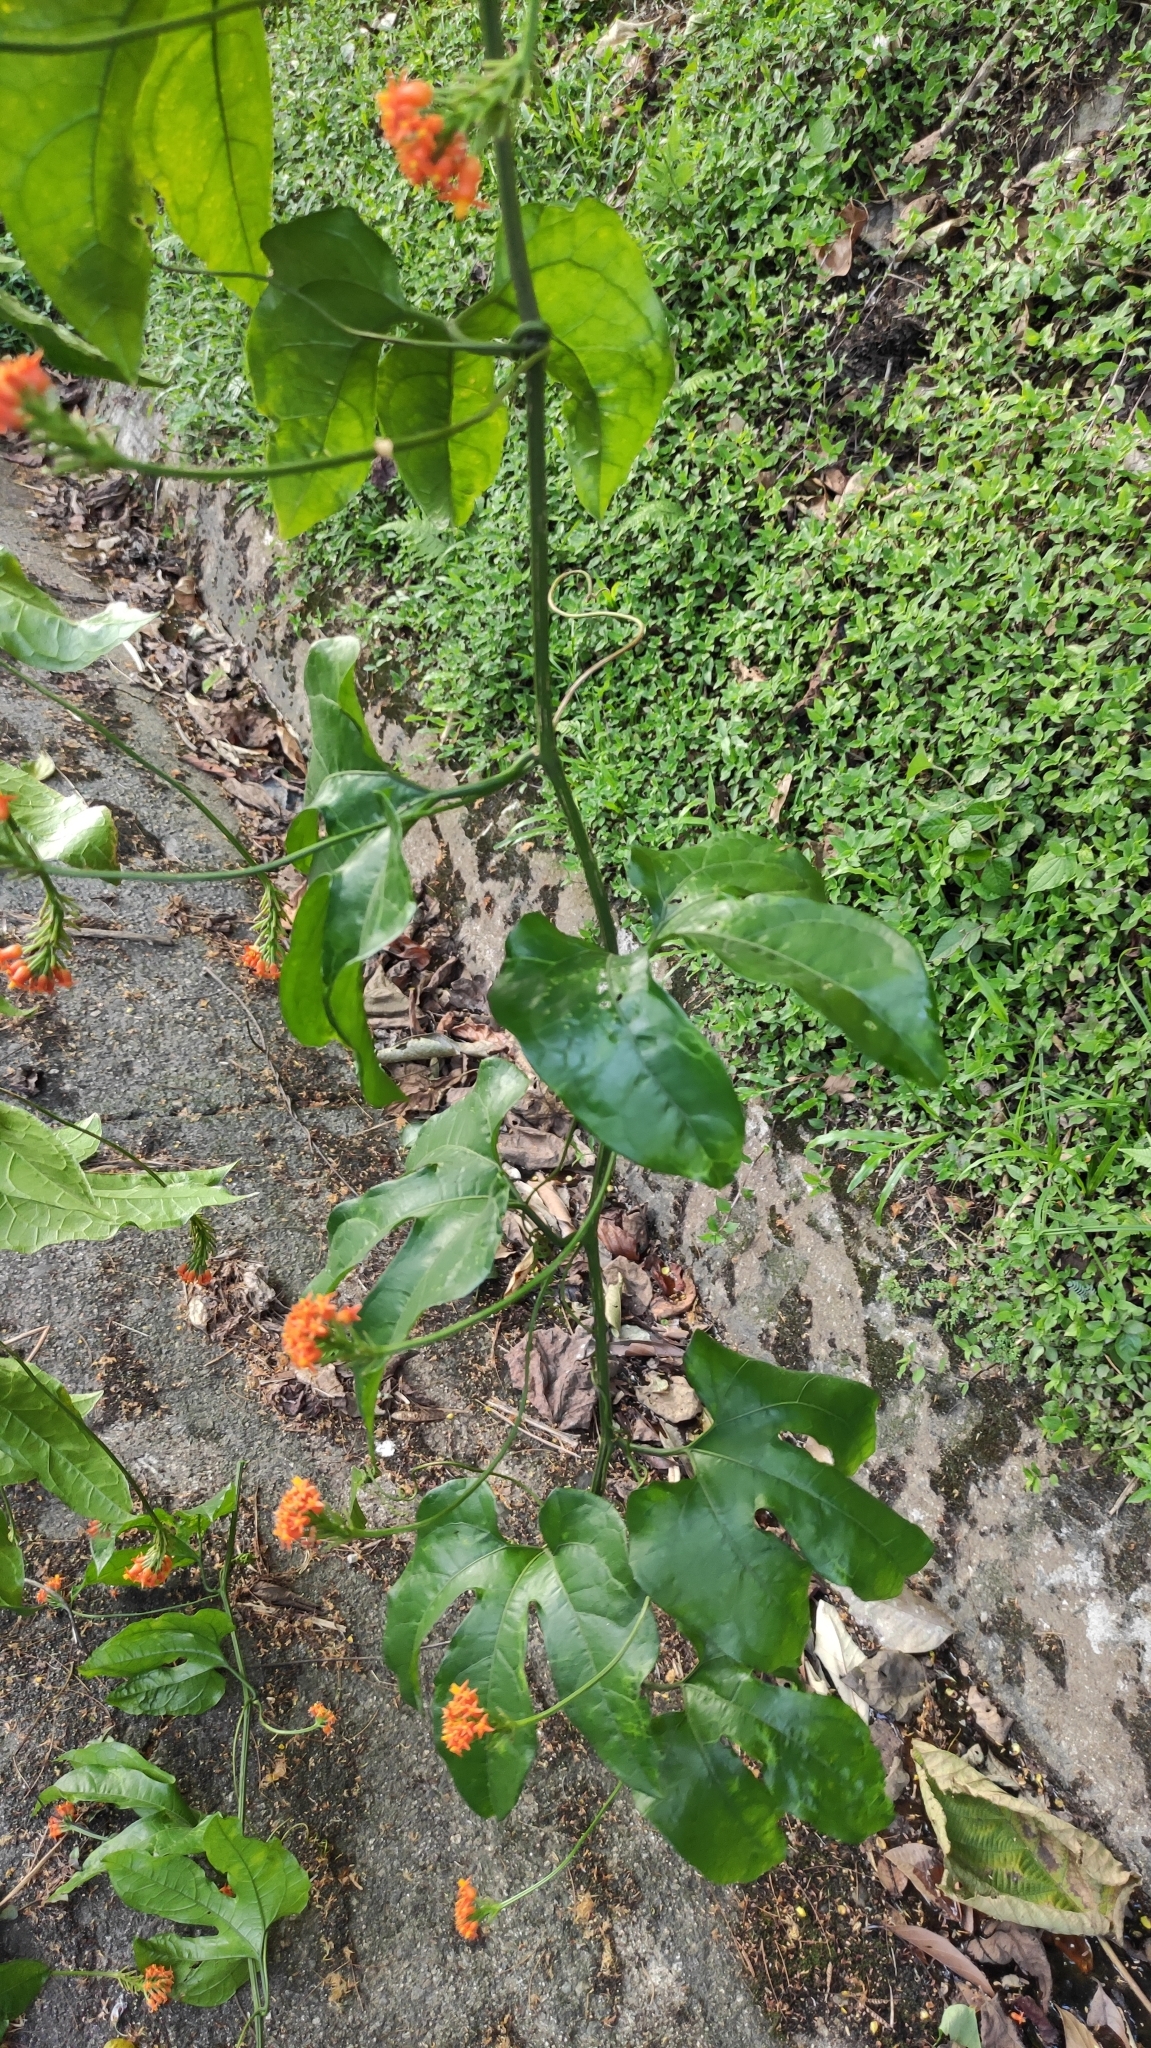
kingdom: Plantae
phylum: Tracheophyta
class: Magnoliopsida
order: Cucurbitales
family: Cucurbitaceae
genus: Gurania
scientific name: Gurania bignoniacea
